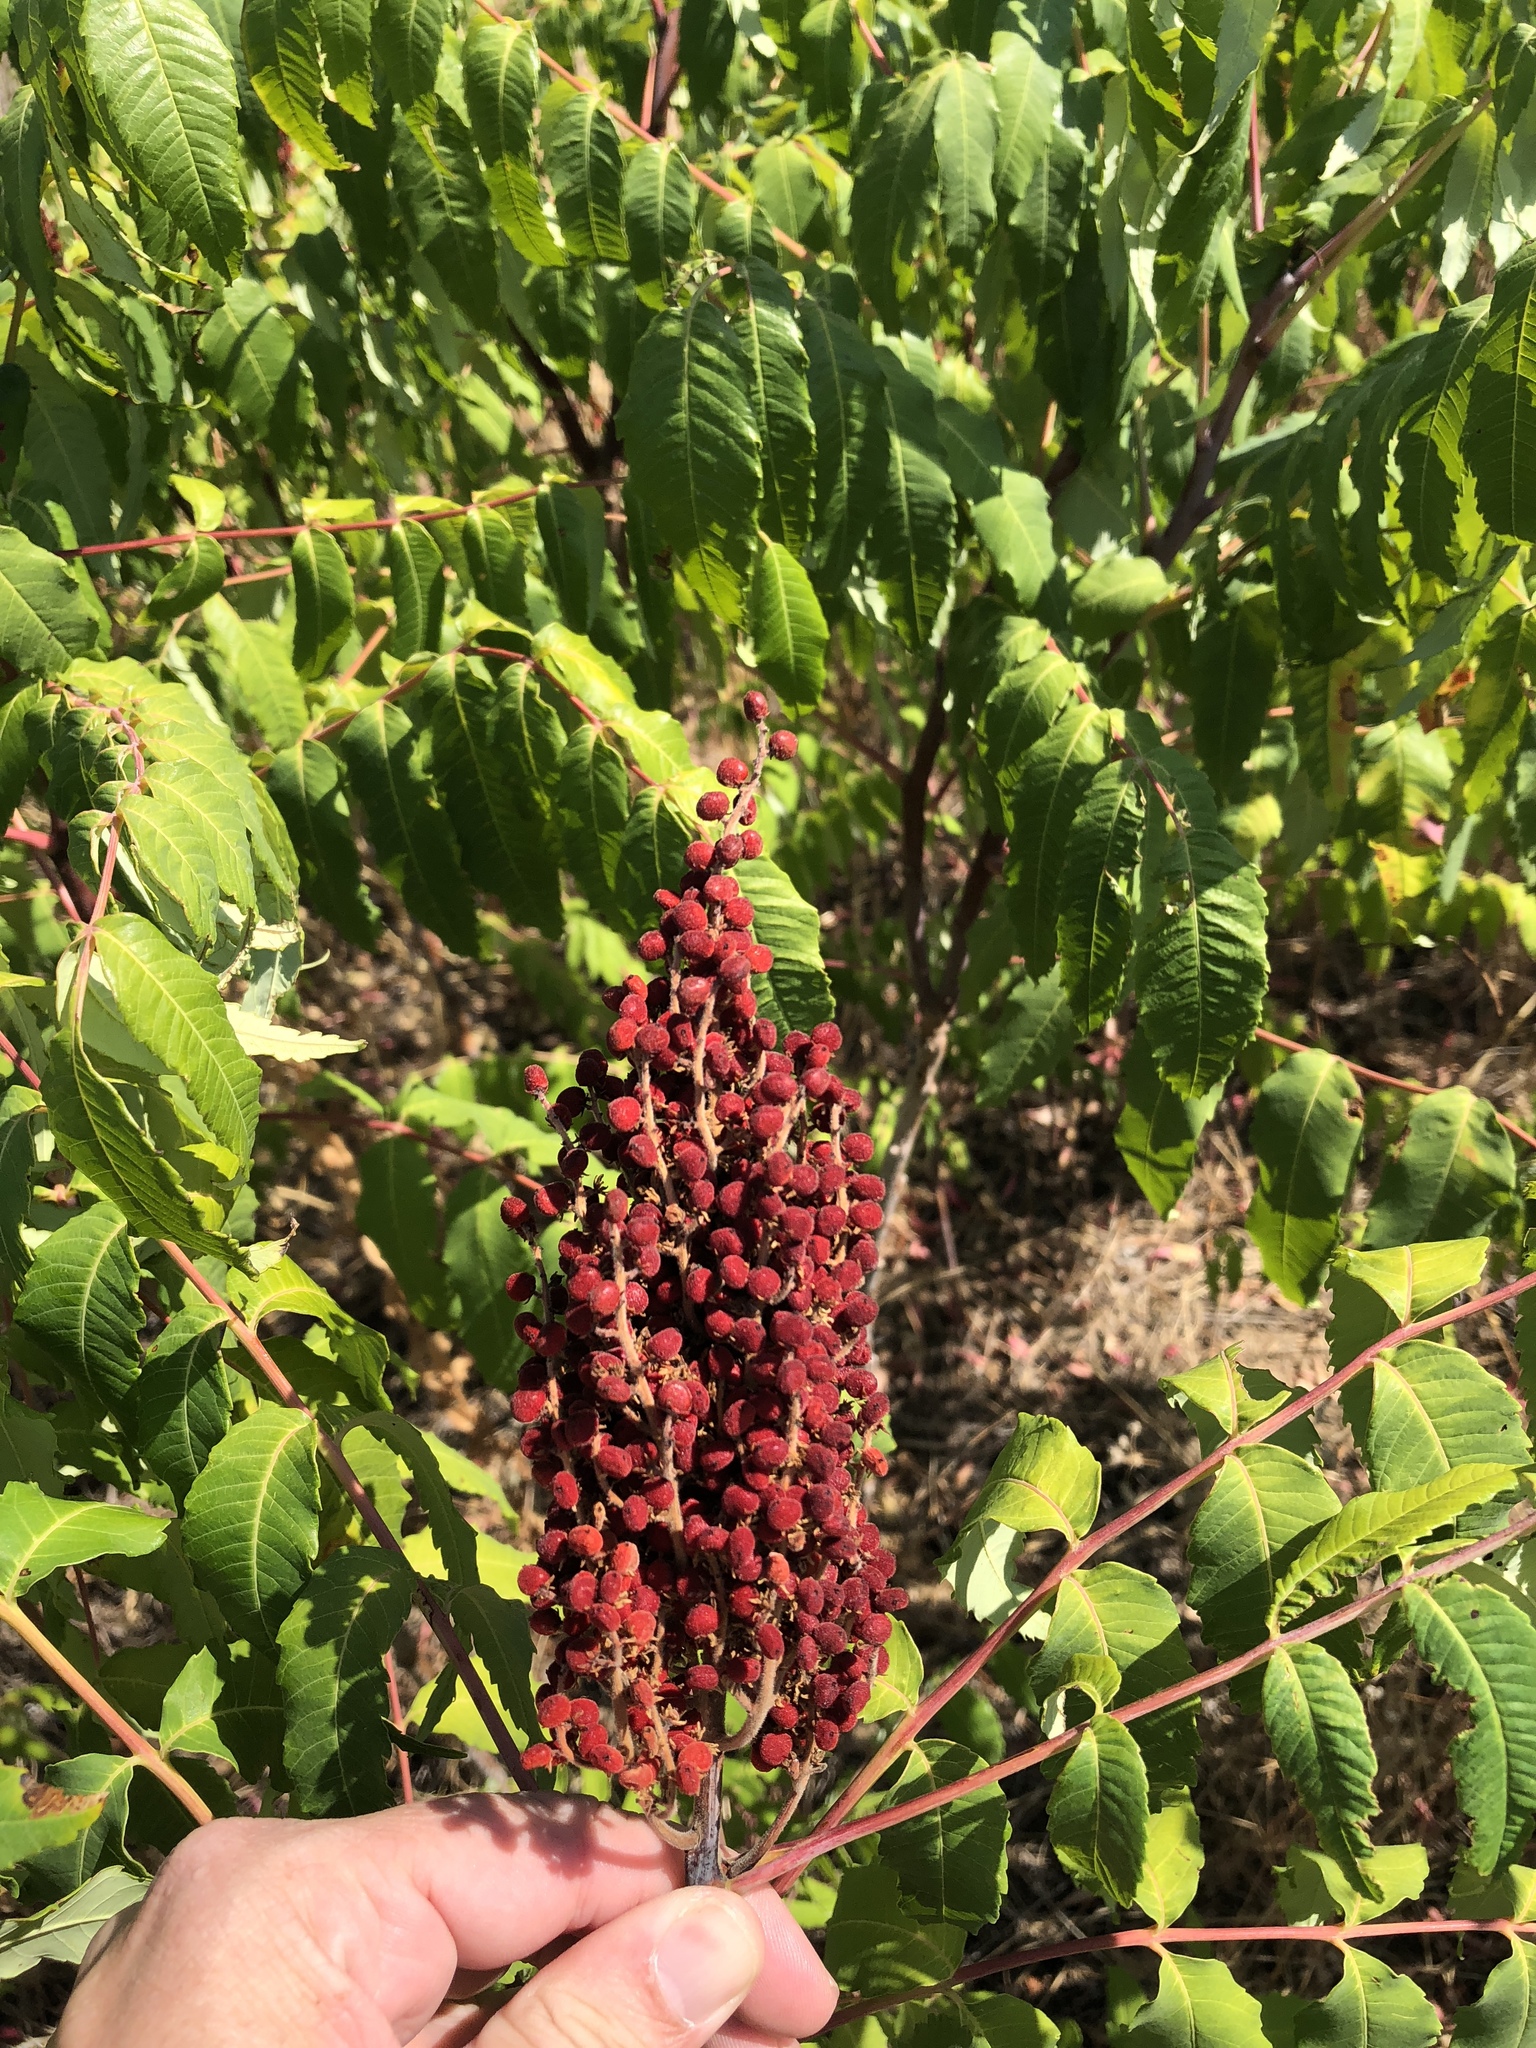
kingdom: Plantae
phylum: Tracheophyta
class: Magnoliopsida
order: Sapindales
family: Anacardiaceae
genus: Rhus
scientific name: Rhus glabra
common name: Scarlet sumac
